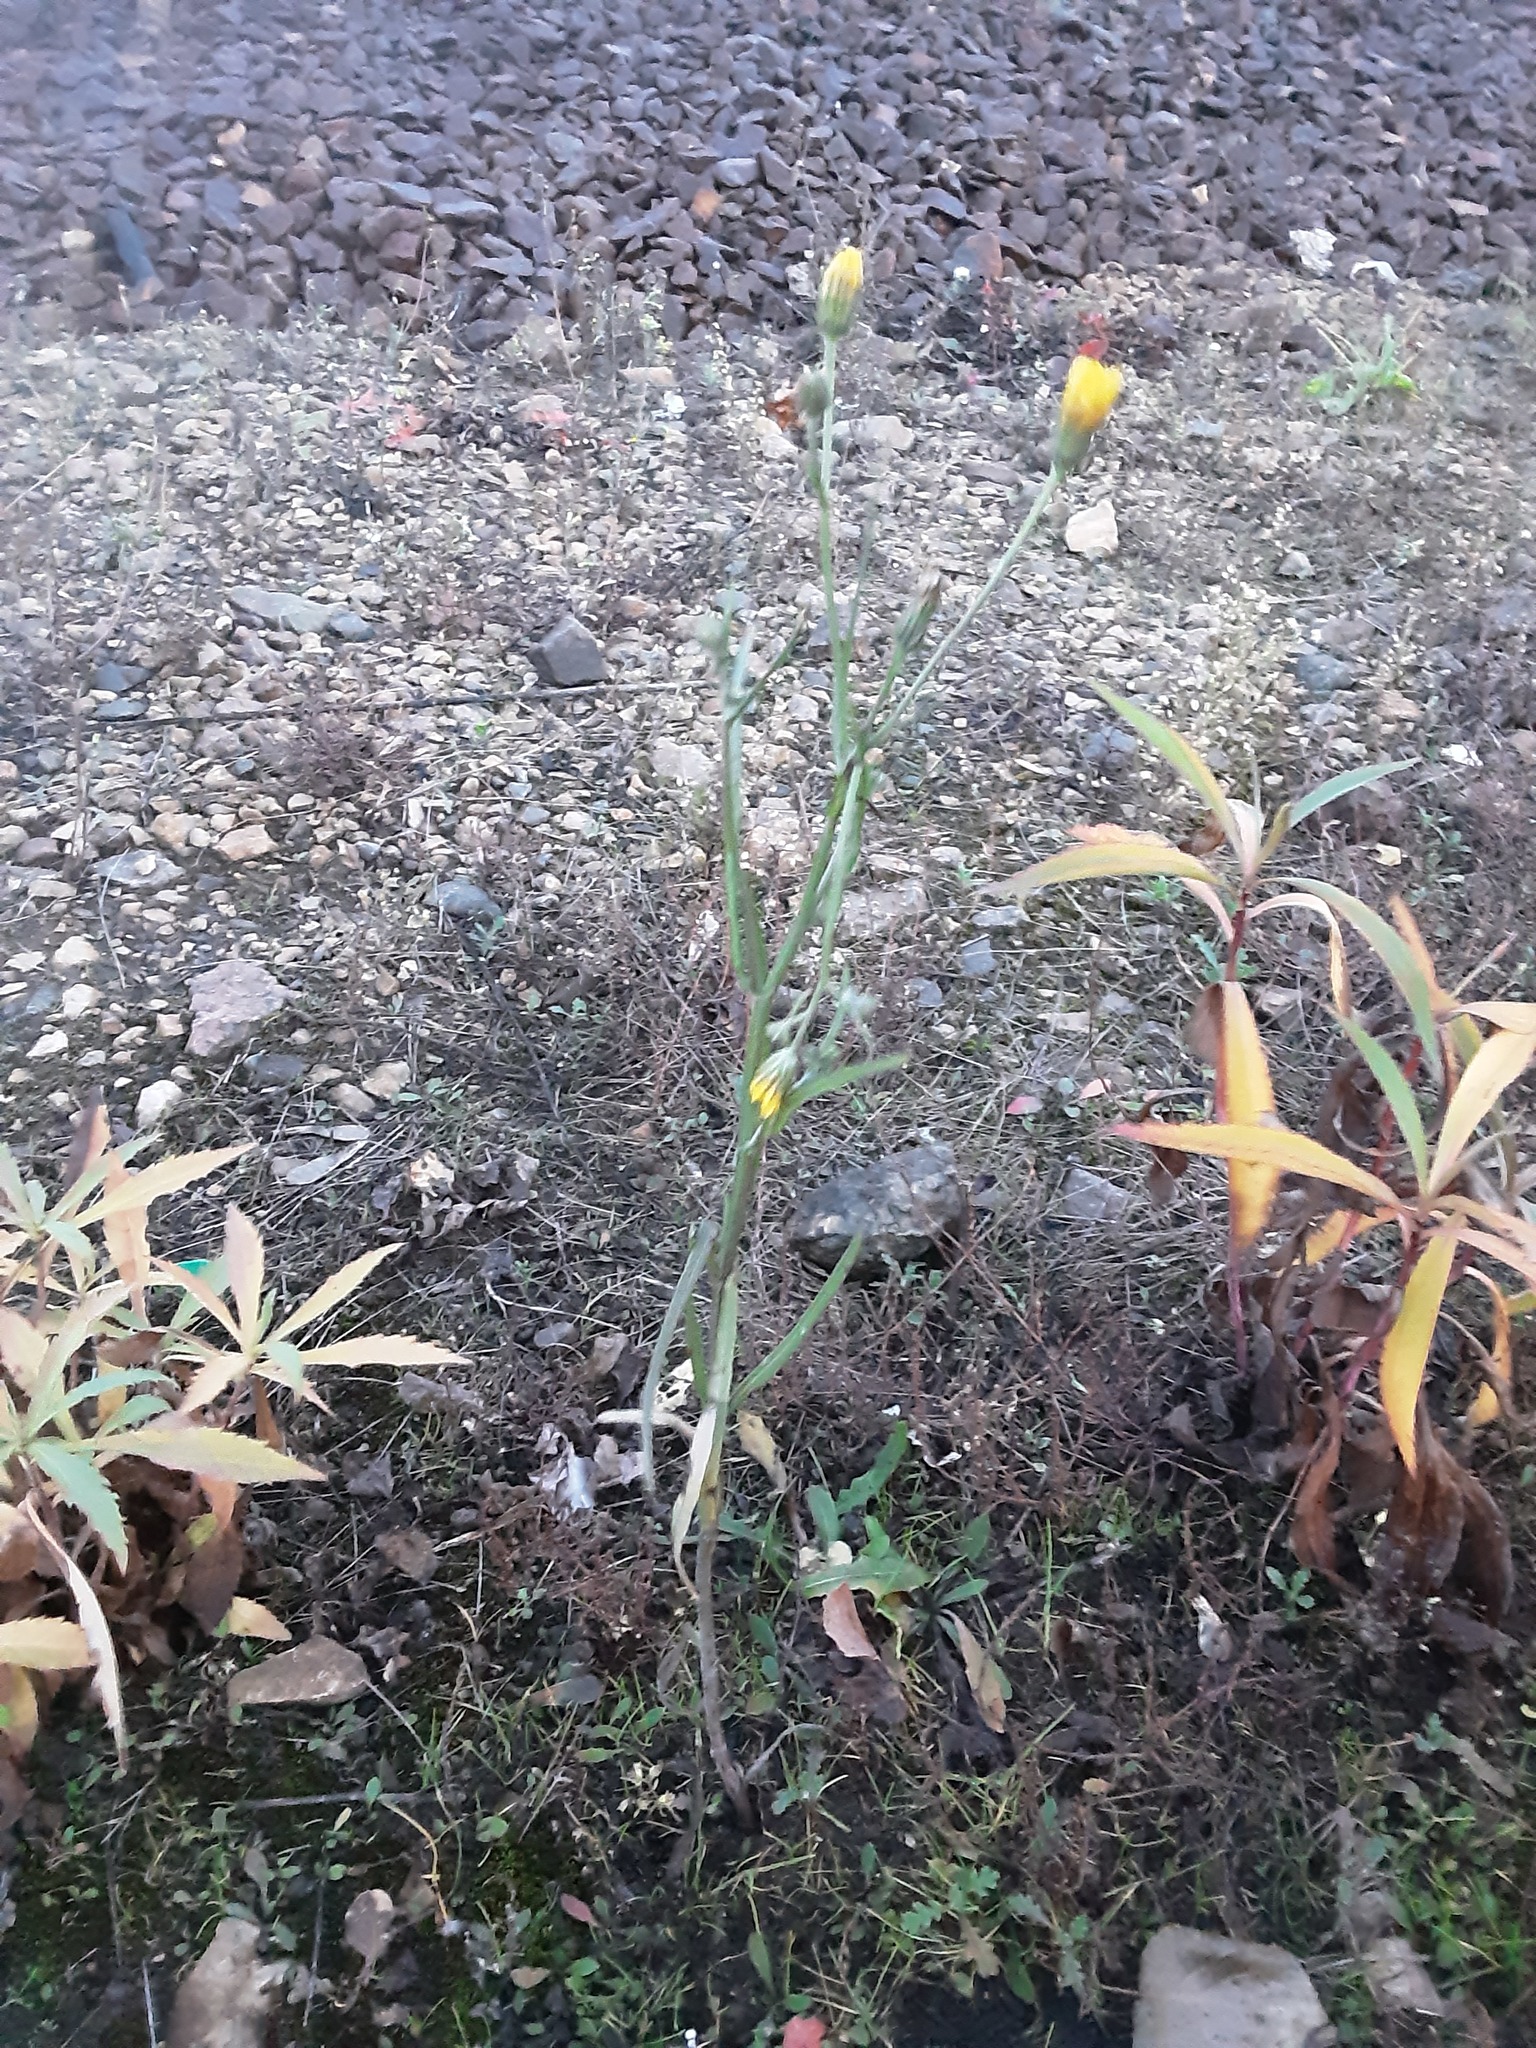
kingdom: Plantae
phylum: Tracheophyta
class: Magnoliopsida
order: Asterales
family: Asteraceae
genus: Crepis
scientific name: Crepis tectorum
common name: Narrow-leaved hawk's-beard
